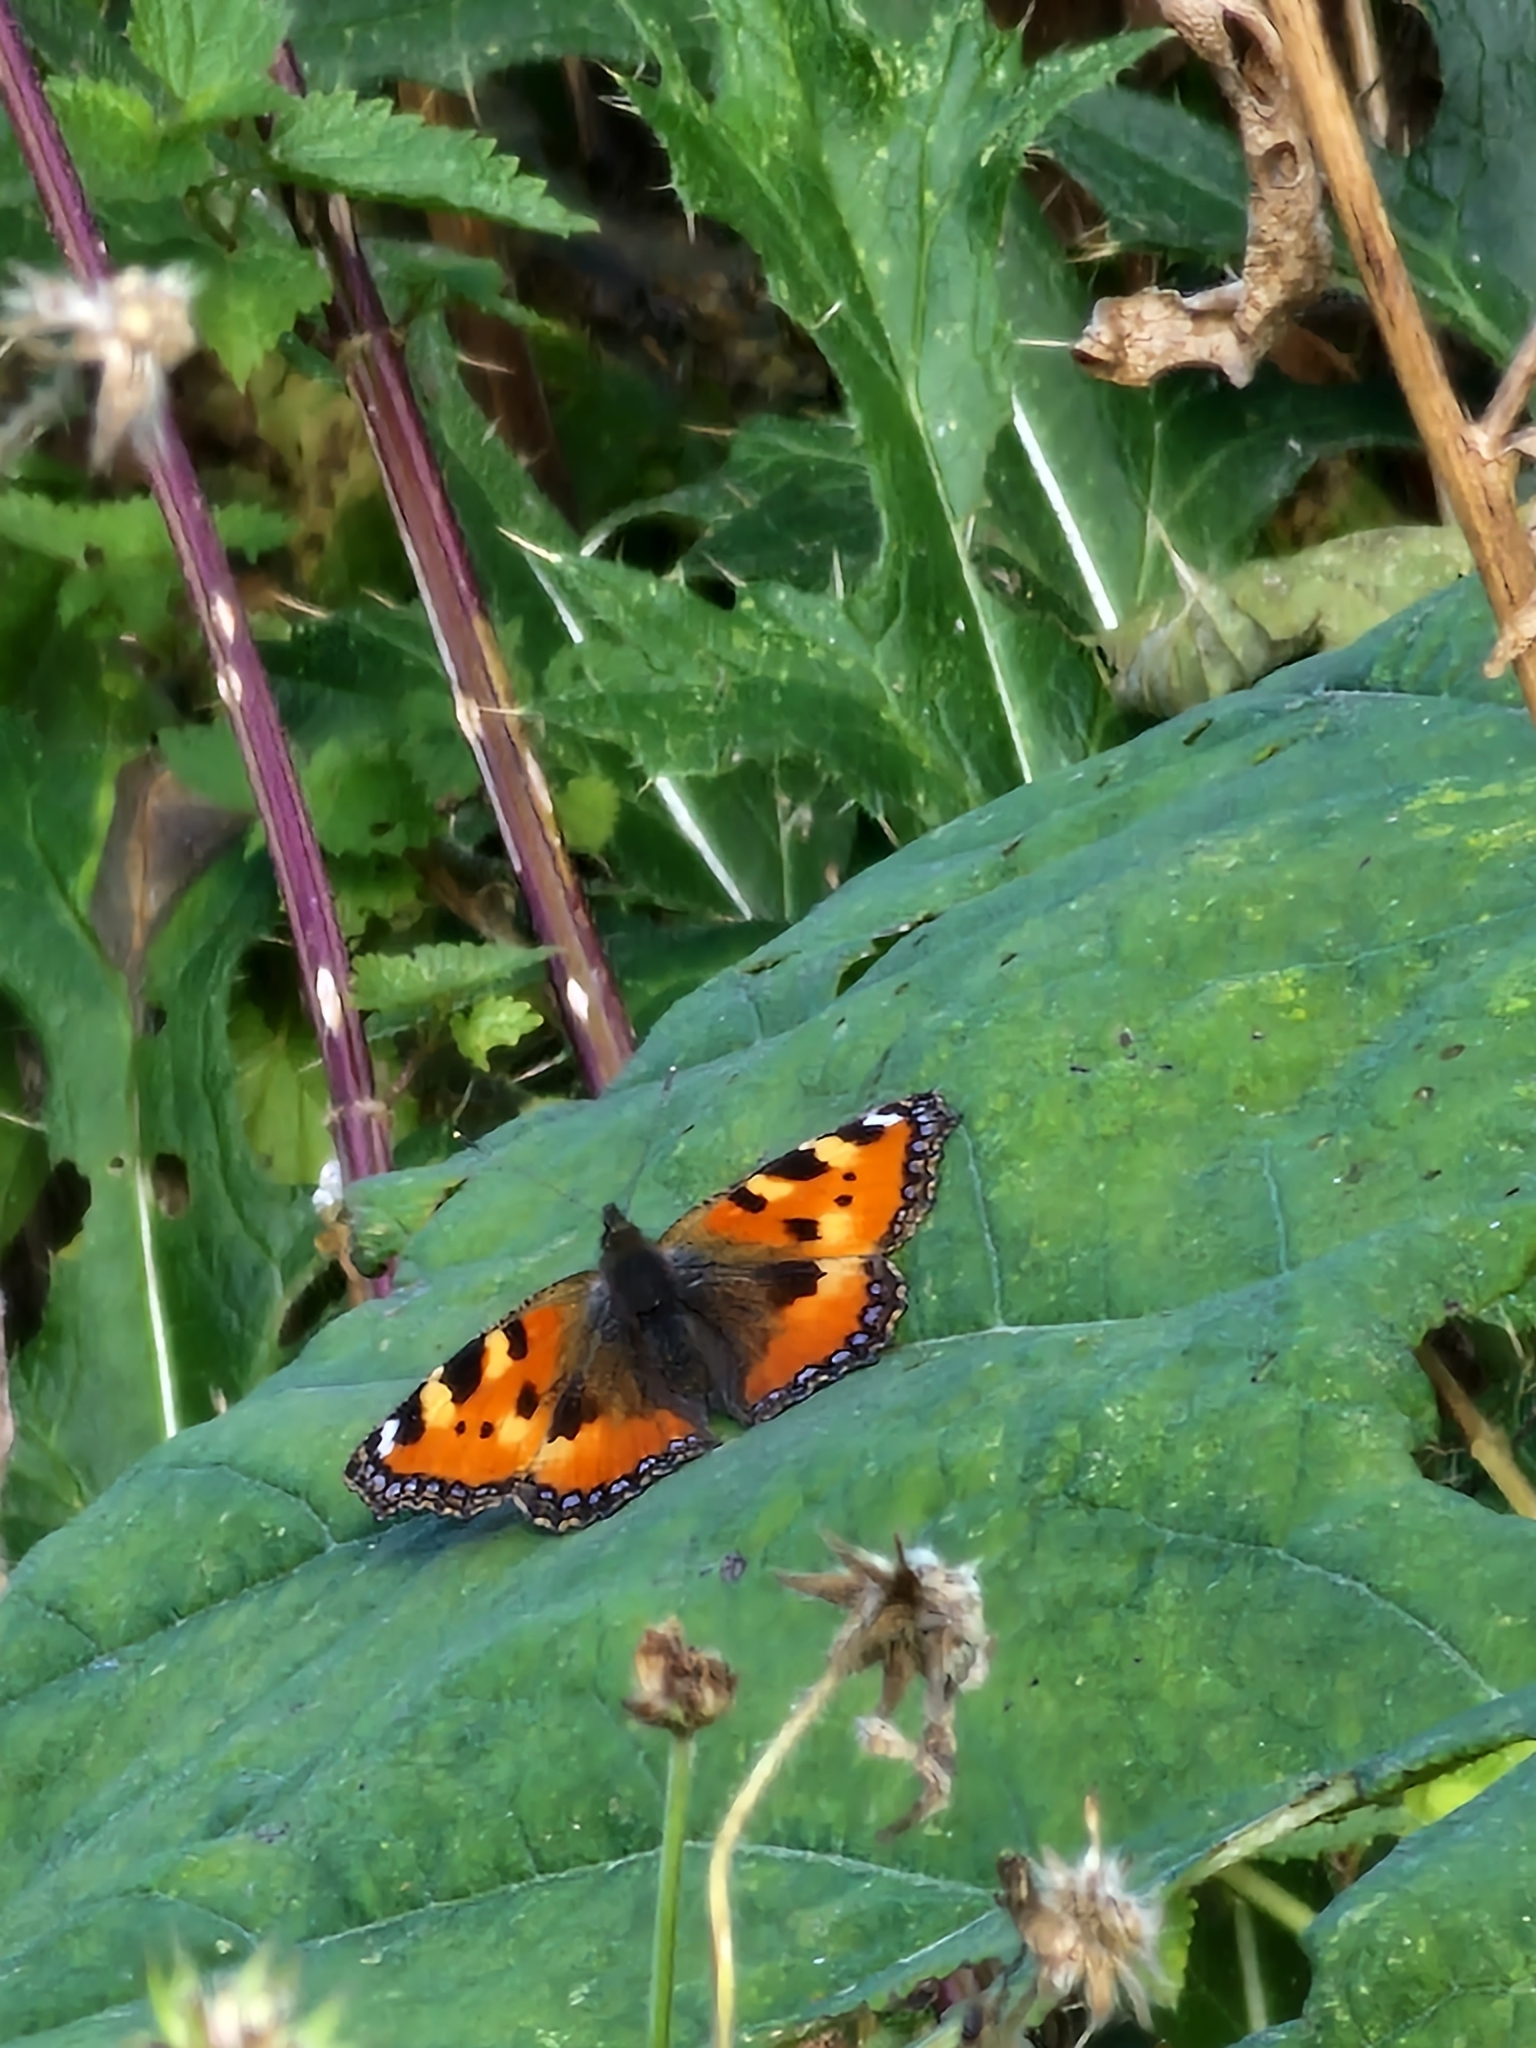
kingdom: Animalia
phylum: Arthropoda
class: Insecta
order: Lepidoptera
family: Nymphalidae
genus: Aglais
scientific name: Aglais urticae
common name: Small tortoiseshell
